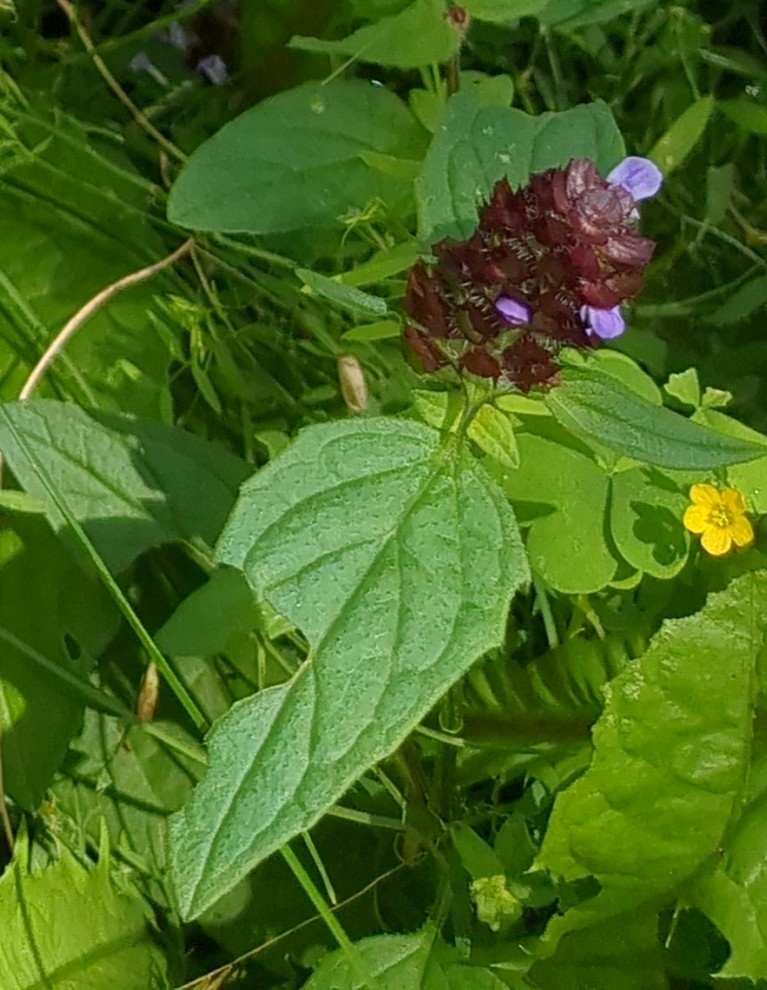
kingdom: Plantae
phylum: Tracheophyta
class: Magnoliopsida
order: Lamiales
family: Lamiaceae
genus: Prunella
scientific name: Prunella vulgaris
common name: Heal-all
